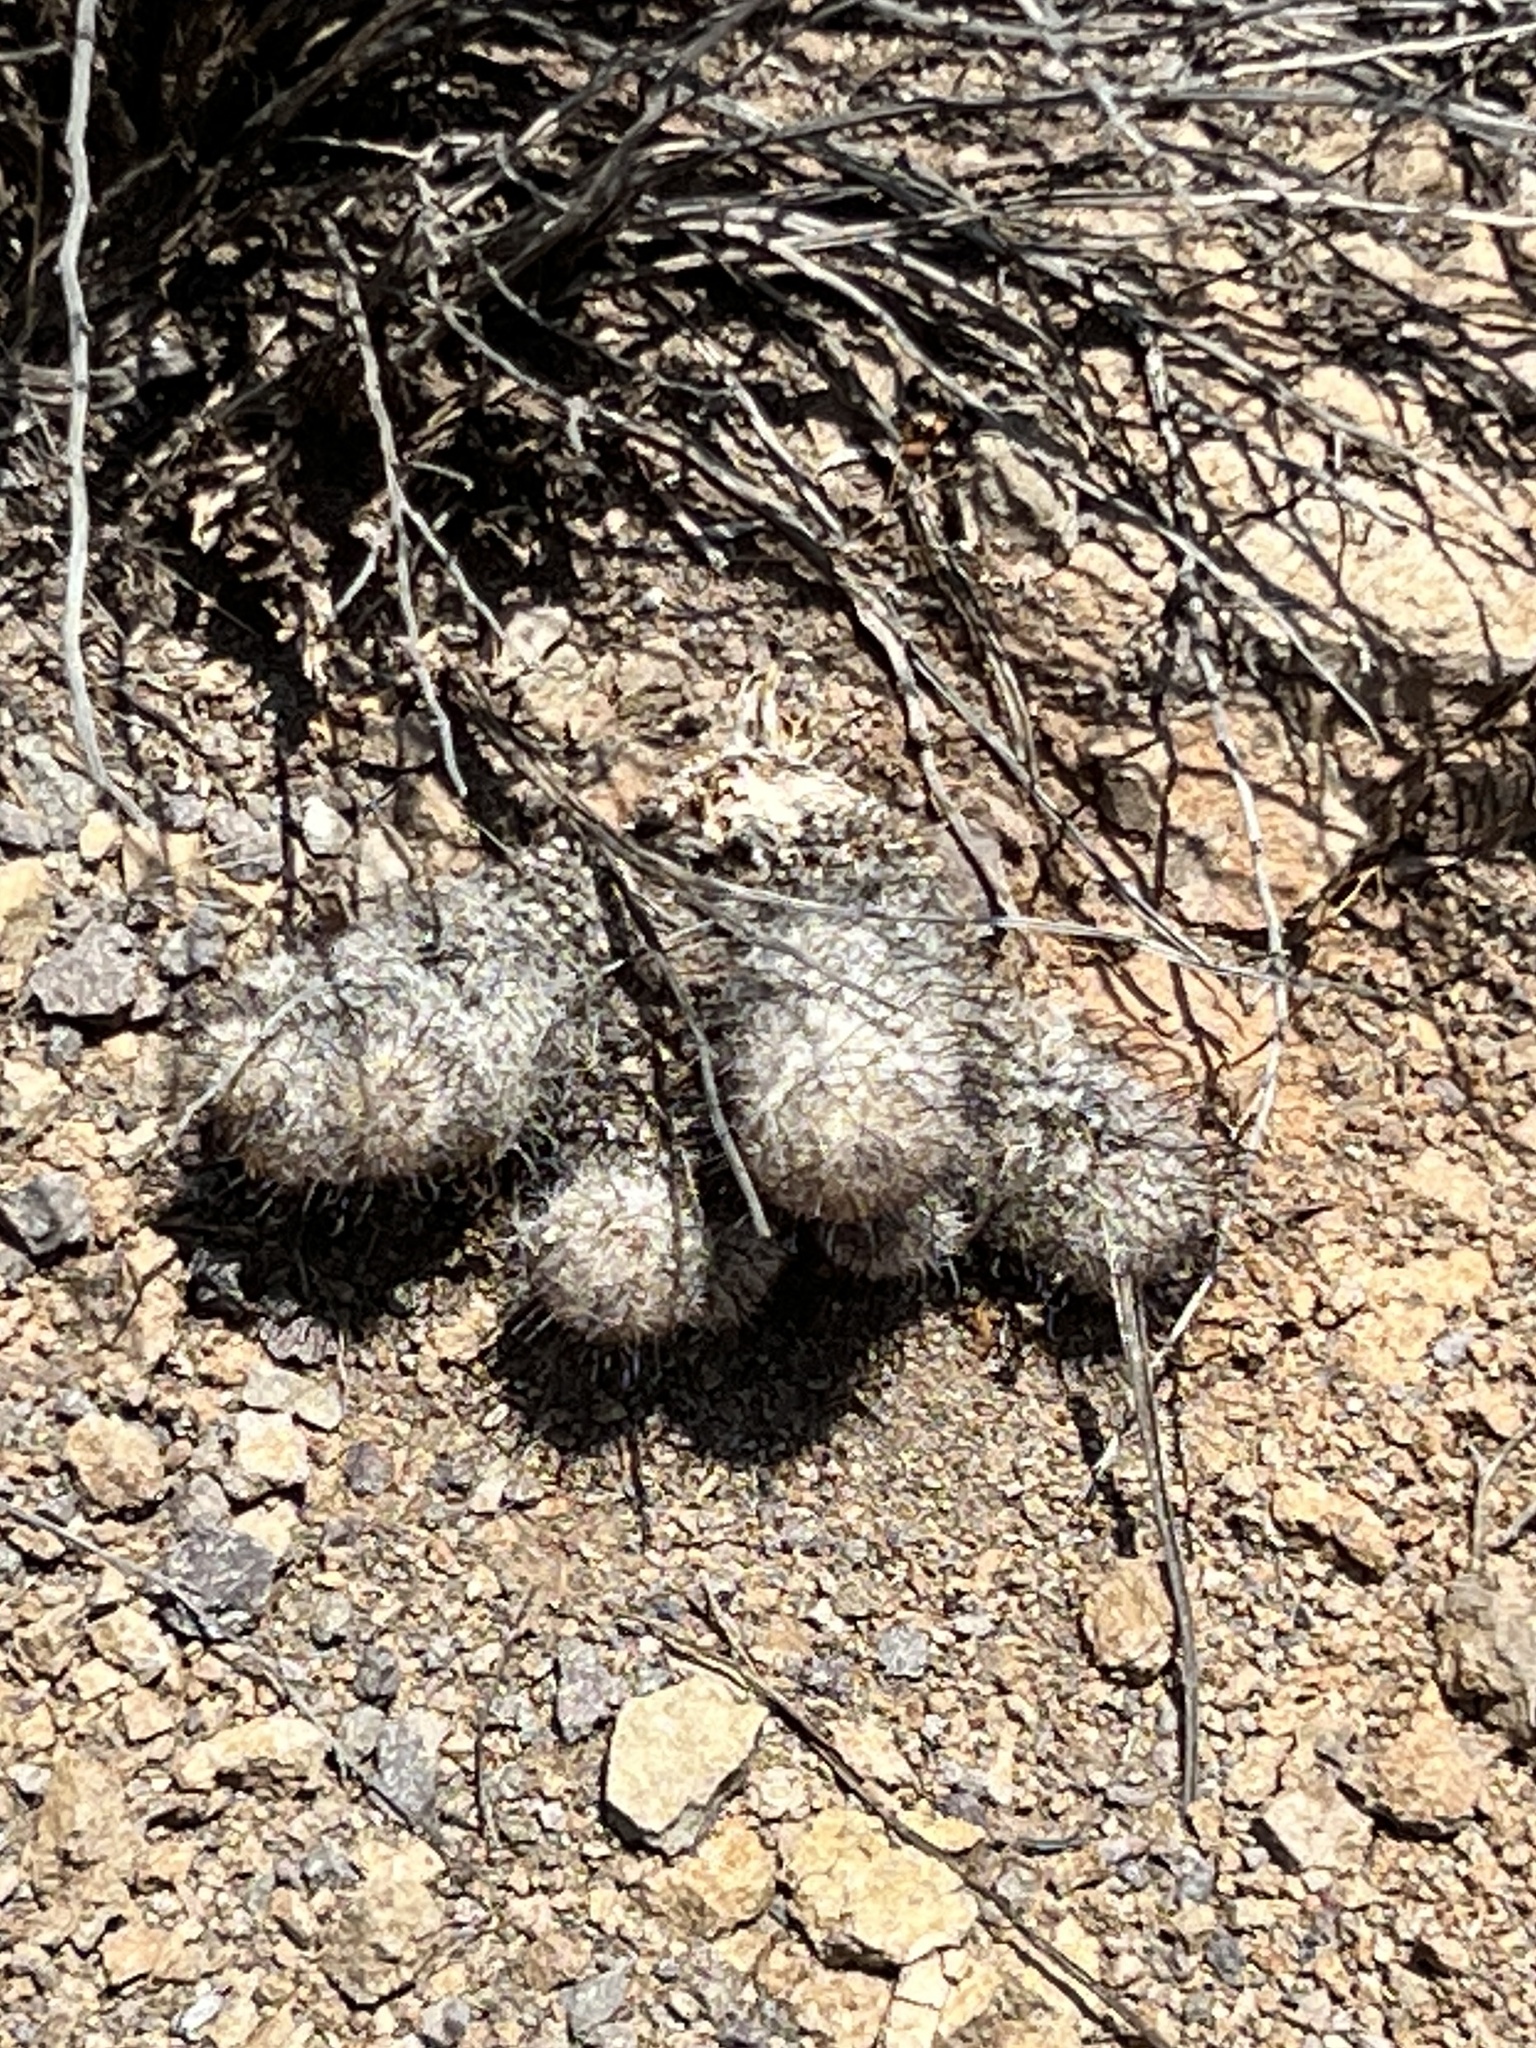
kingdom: Plantae
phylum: Tracheophyta
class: Magnoliopsida
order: Caryophyllales
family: Cactaceae
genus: Cochemiea
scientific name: Cochemiea grahamii
